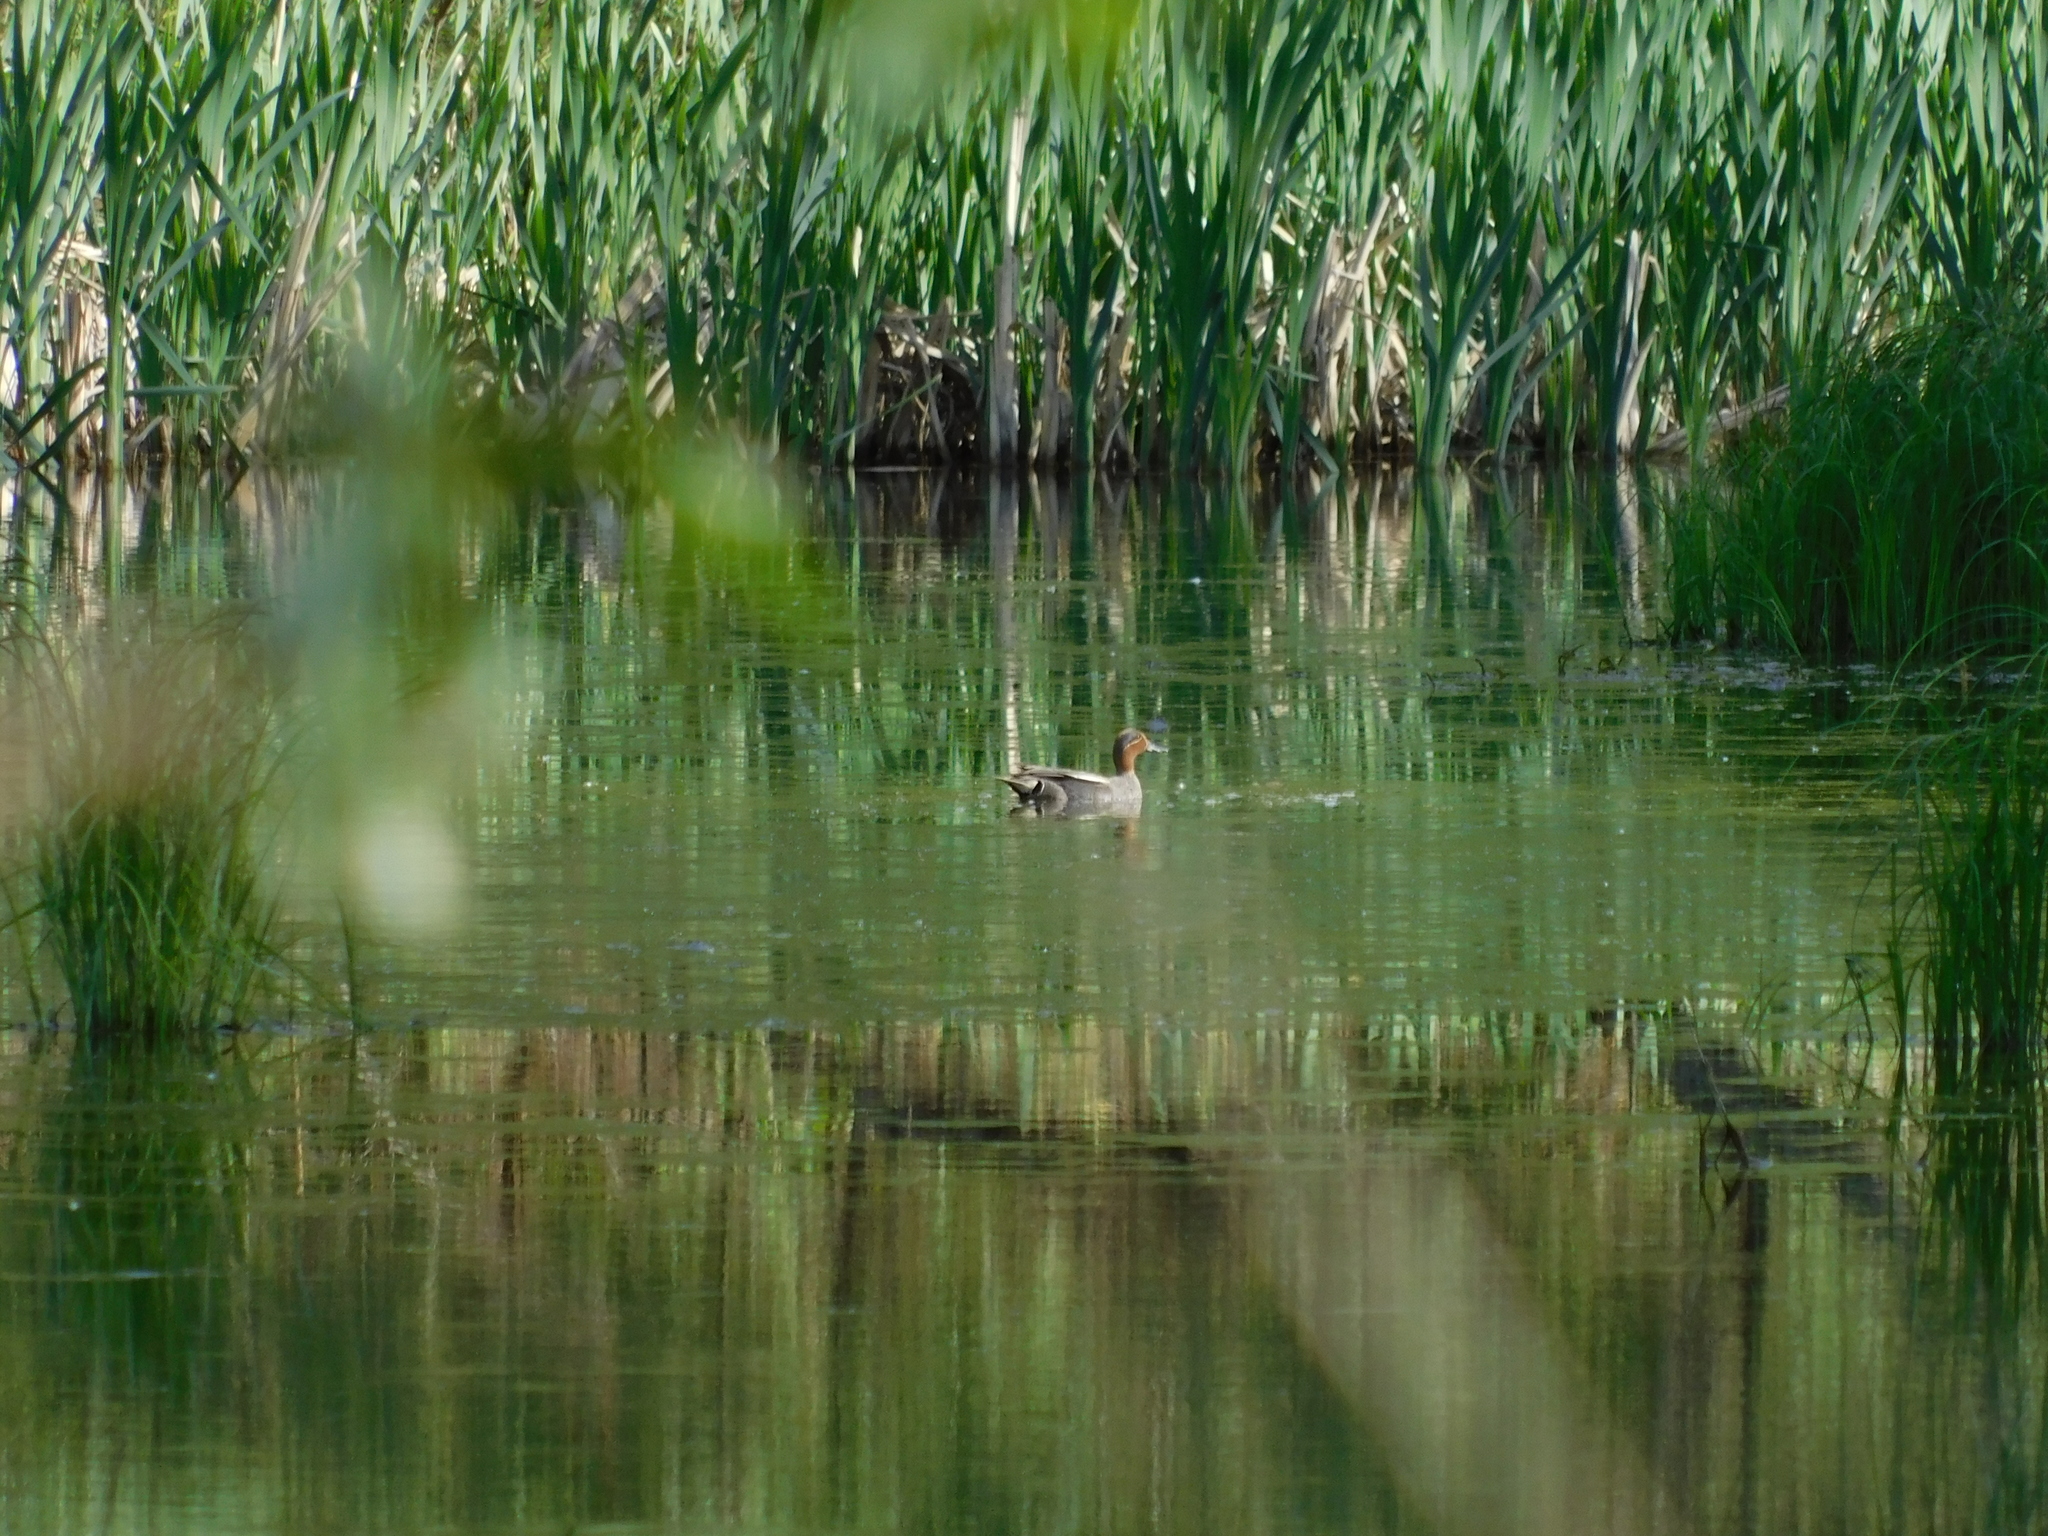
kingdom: Animalia
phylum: Chordata
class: Aves
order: Anseriformes
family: Anatidae
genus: Anas
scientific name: Anas crecca
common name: Eurasian teal
